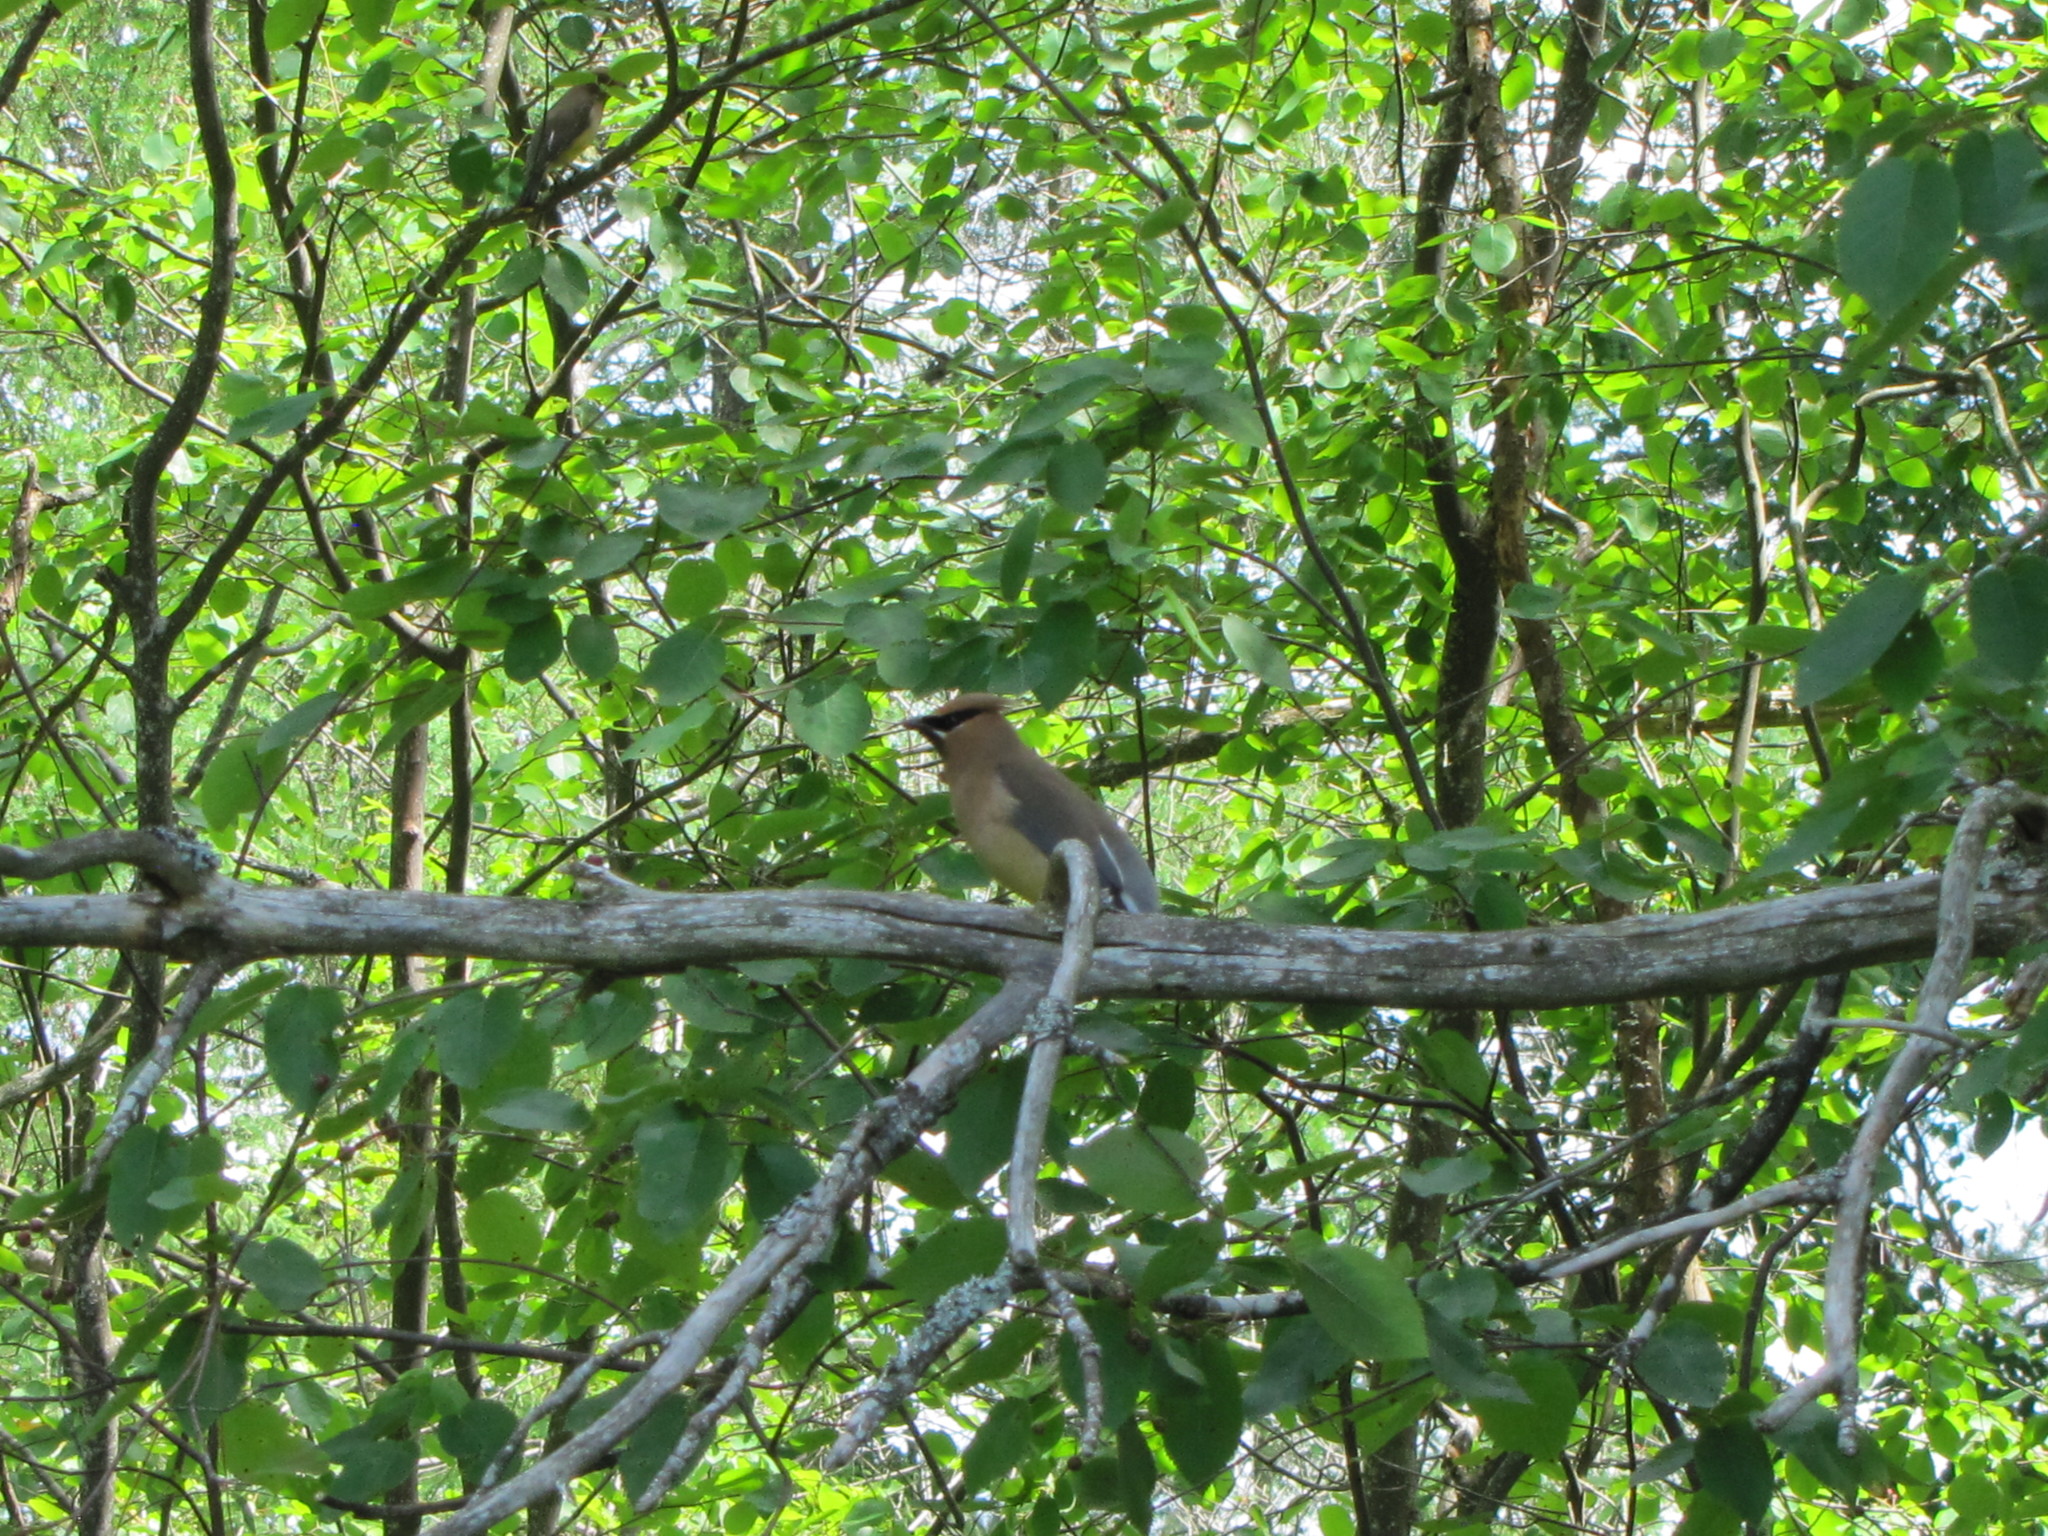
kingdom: Animalia
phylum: Chordata
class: Aves
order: Passeriformes
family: Bombycillidae
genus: Bombycilla
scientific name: Bombycilla cedrorum
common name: Cedar waxwing
